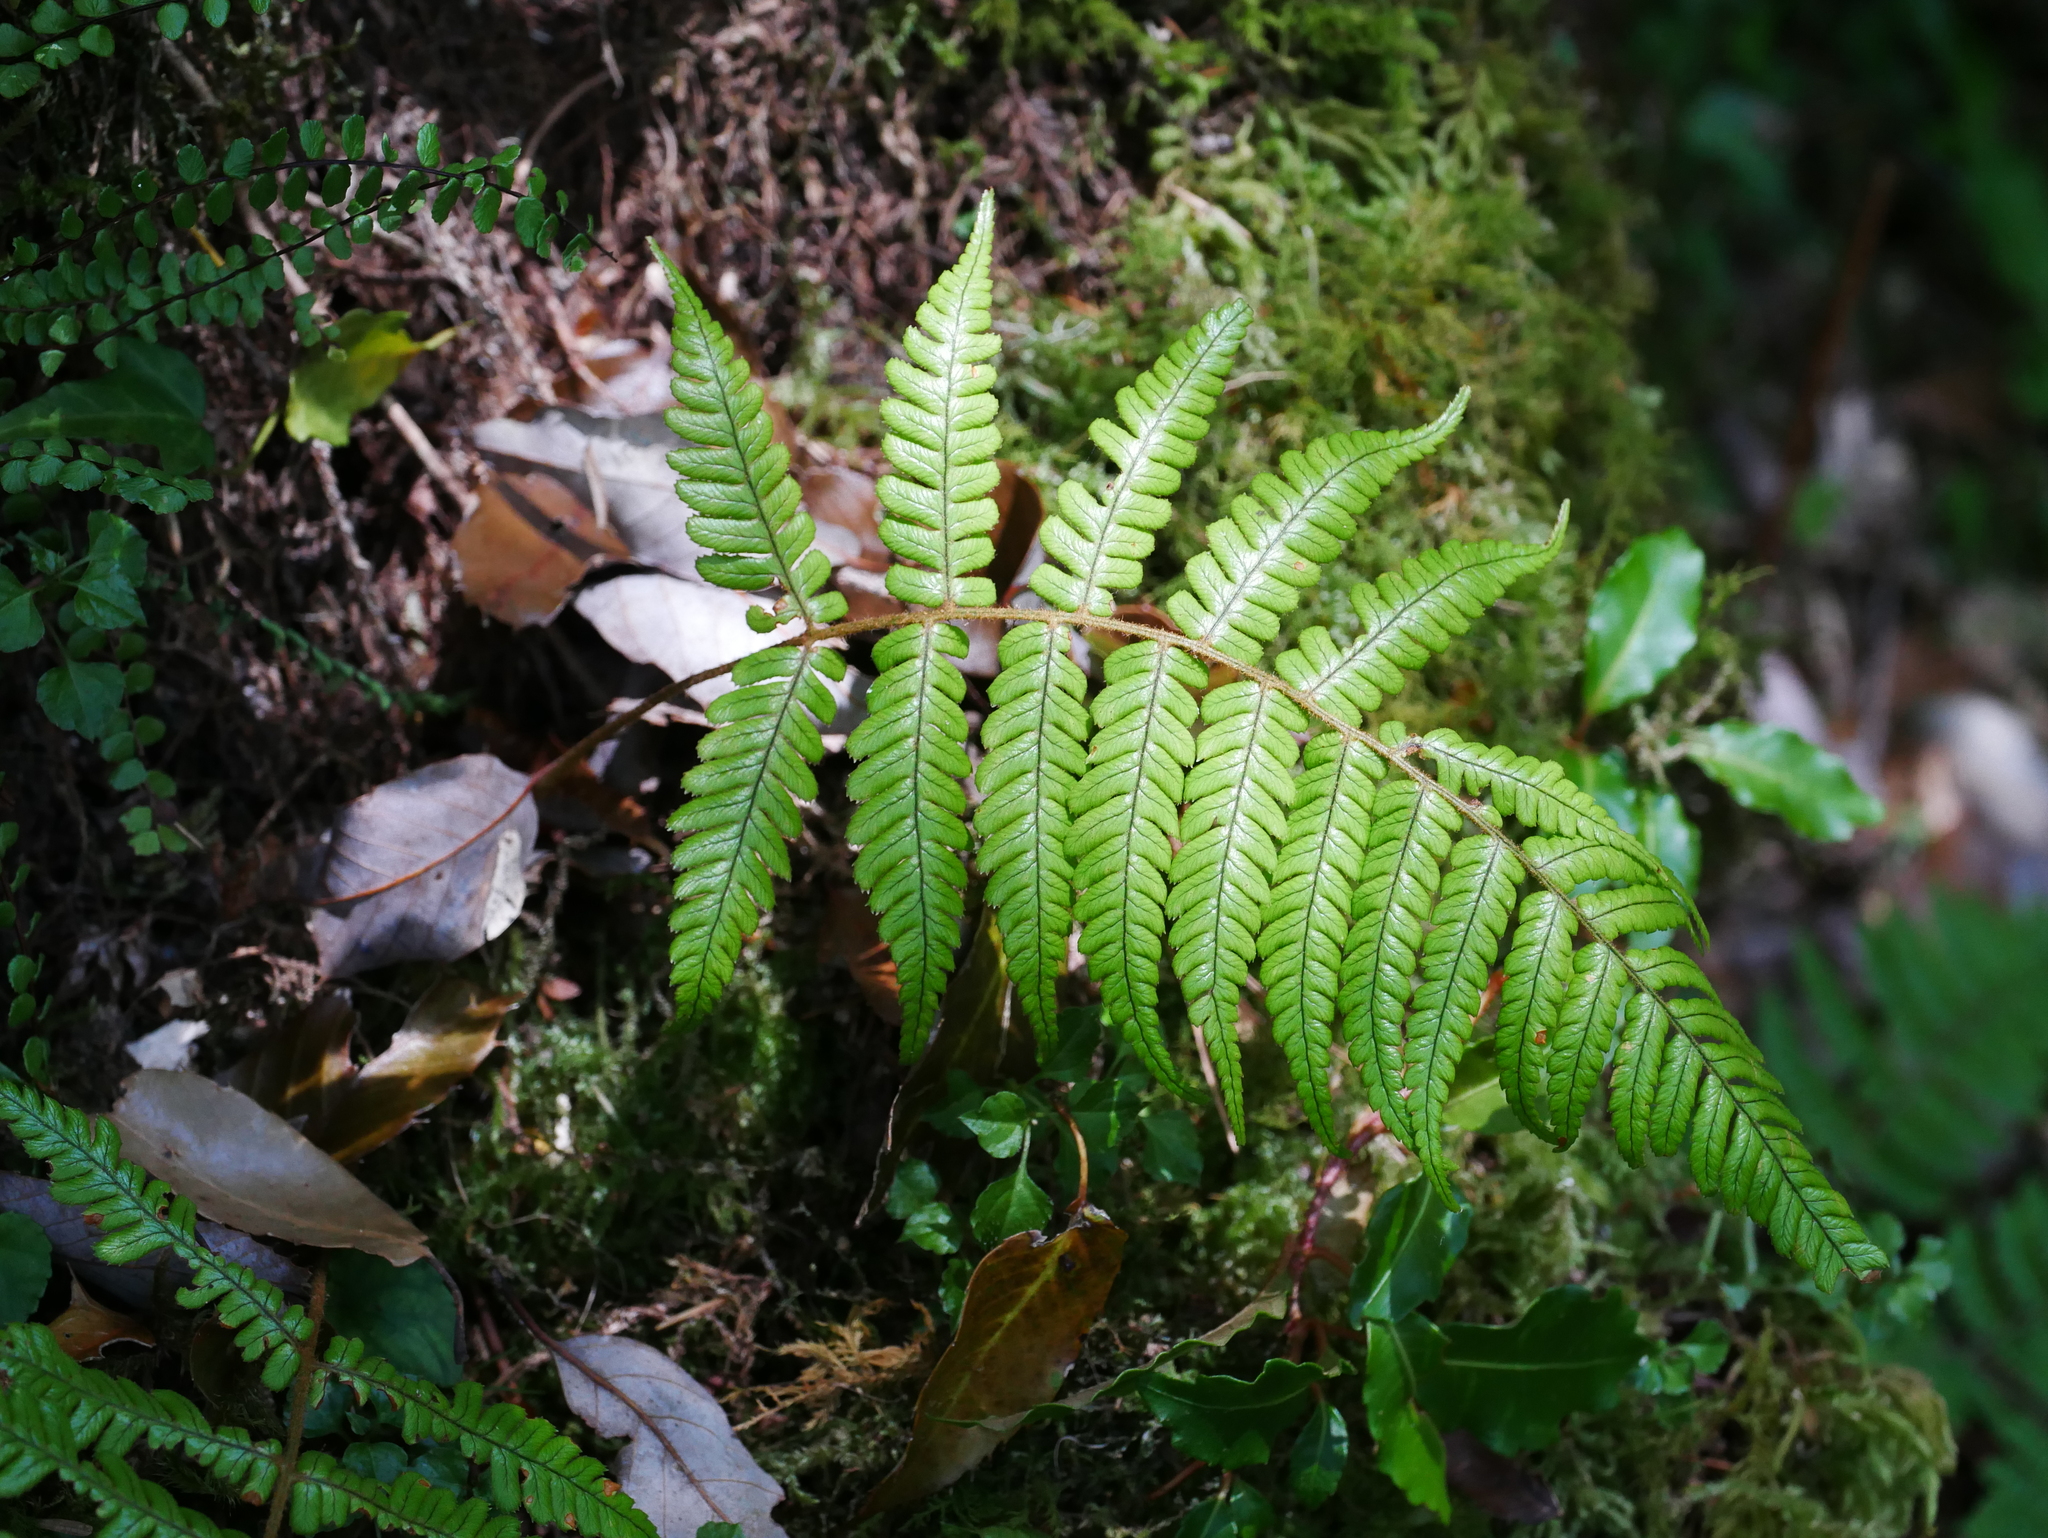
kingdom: Plantae
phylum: Tracheophyta
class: Polypodiopsida
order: Polypodiales
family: Dryopteridaceae
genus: Dryopteris
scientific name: Dryopteris lepidopoda
